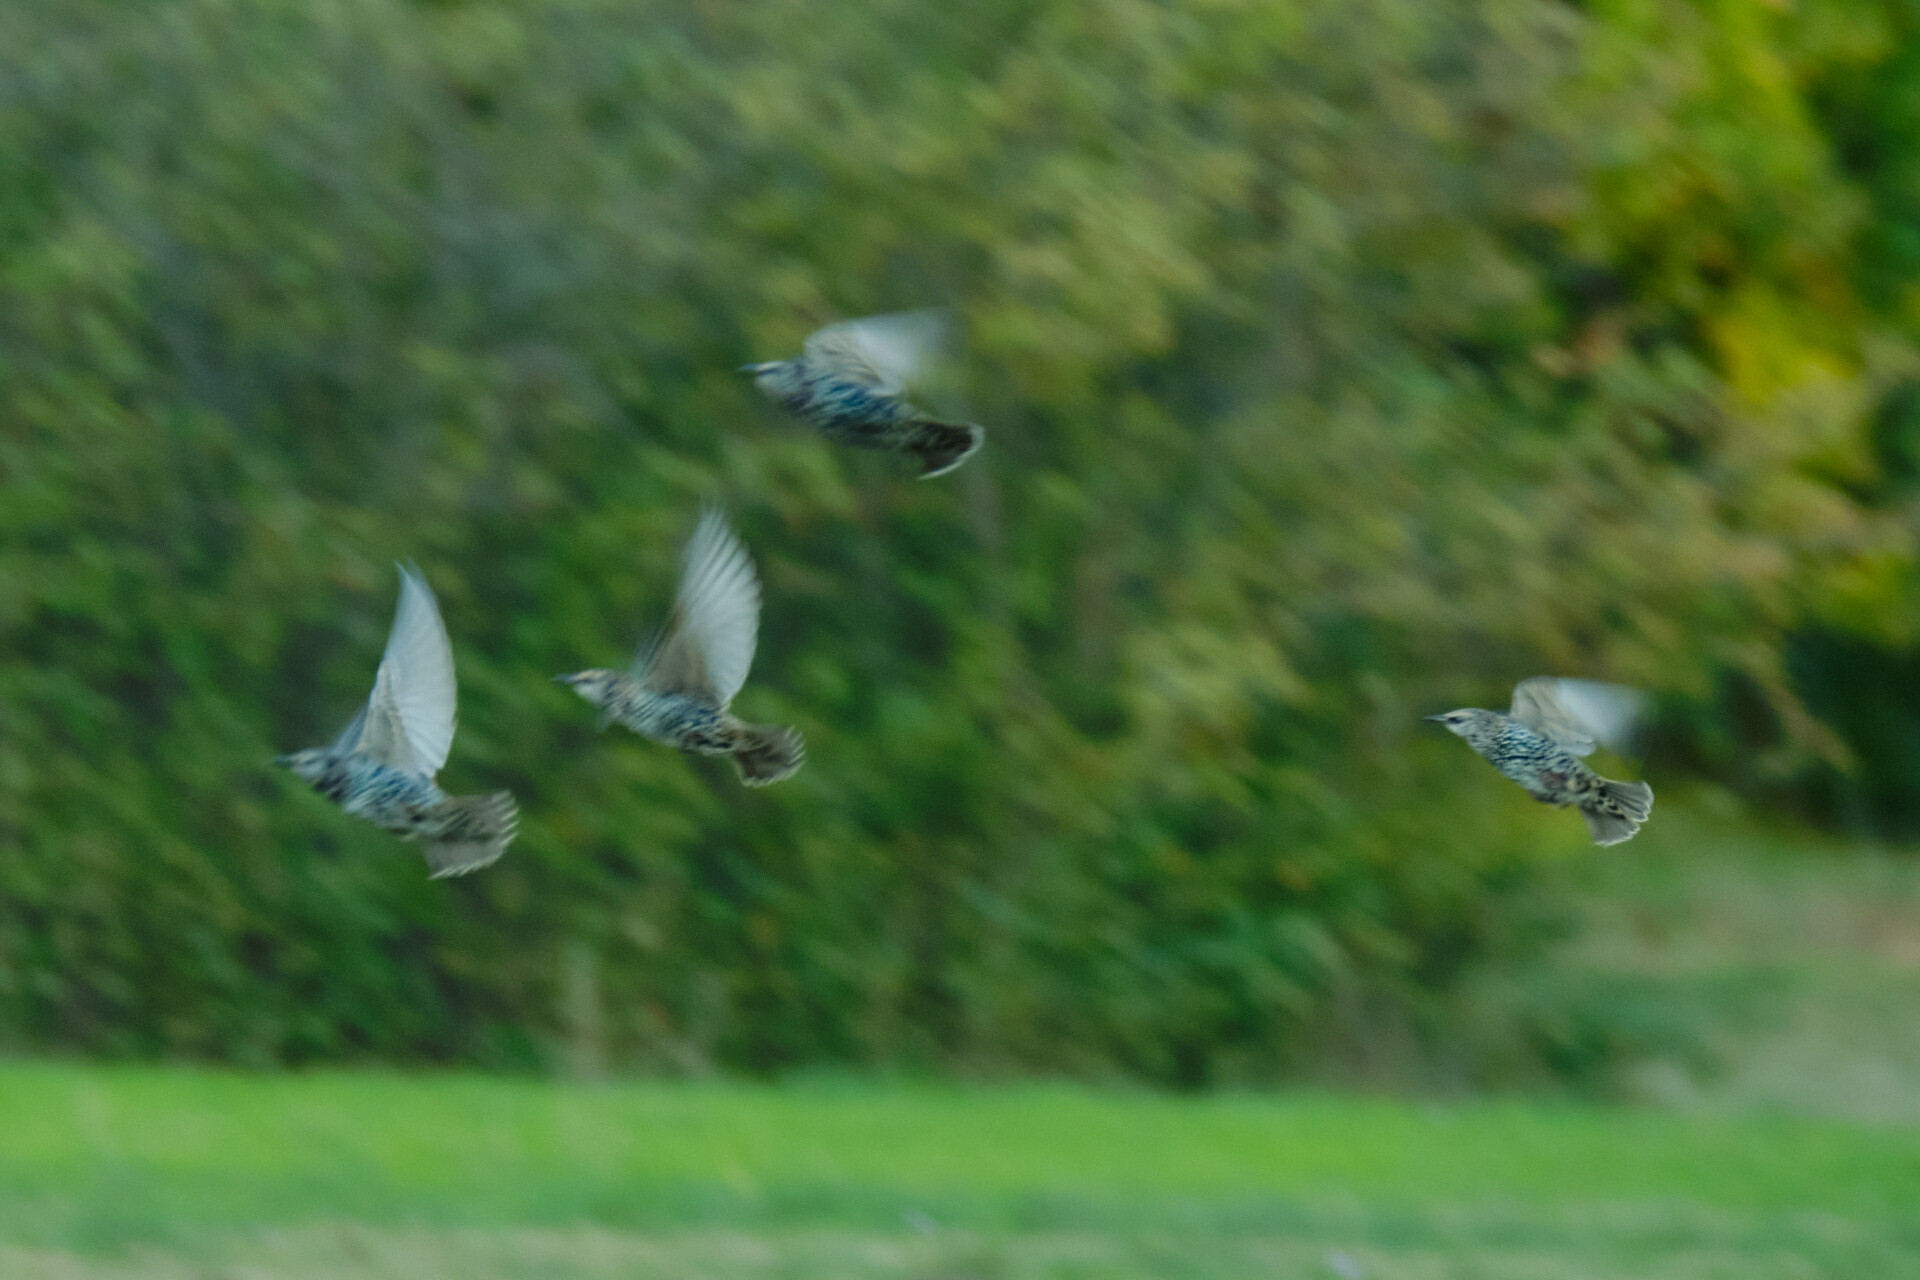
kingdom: Animalia
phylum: Chordata
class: Aves
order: Passeriformes
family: Sturnidae
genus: Sturnus
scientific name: Sturnus vulgaris
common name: Common starling
